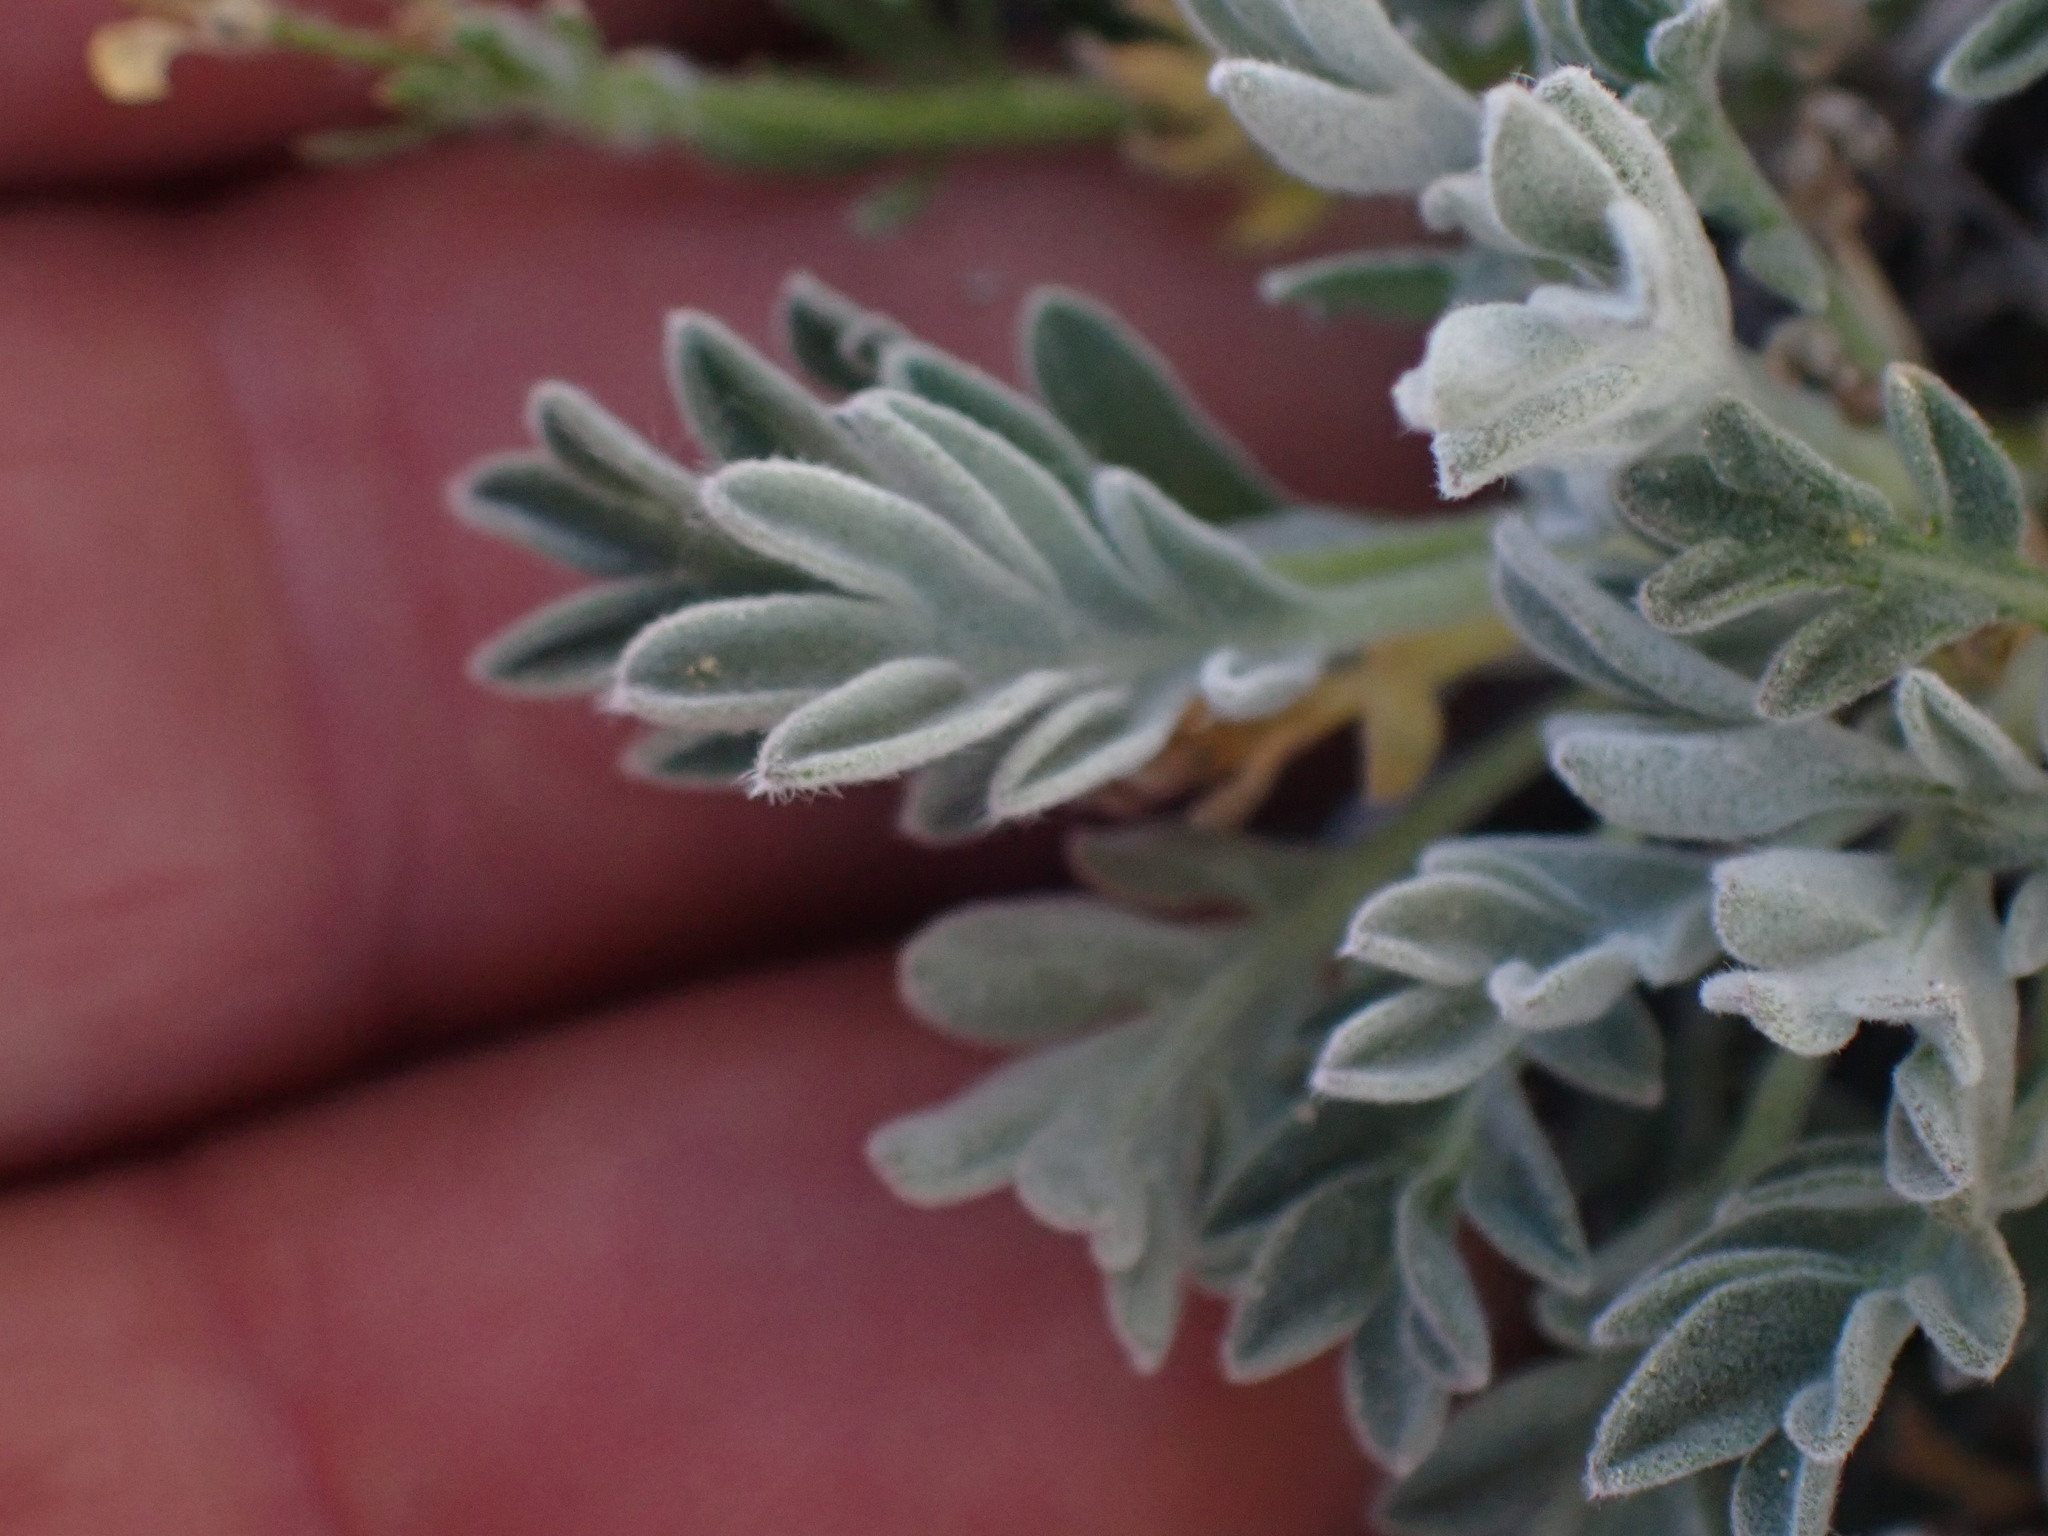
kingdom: Plantae
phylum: Tracheophyta
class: Magnoliopsida
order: Brassicales
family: Brassicaceae
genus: Smelowskia
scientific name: Smelowskia americana
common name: American false candytuft
